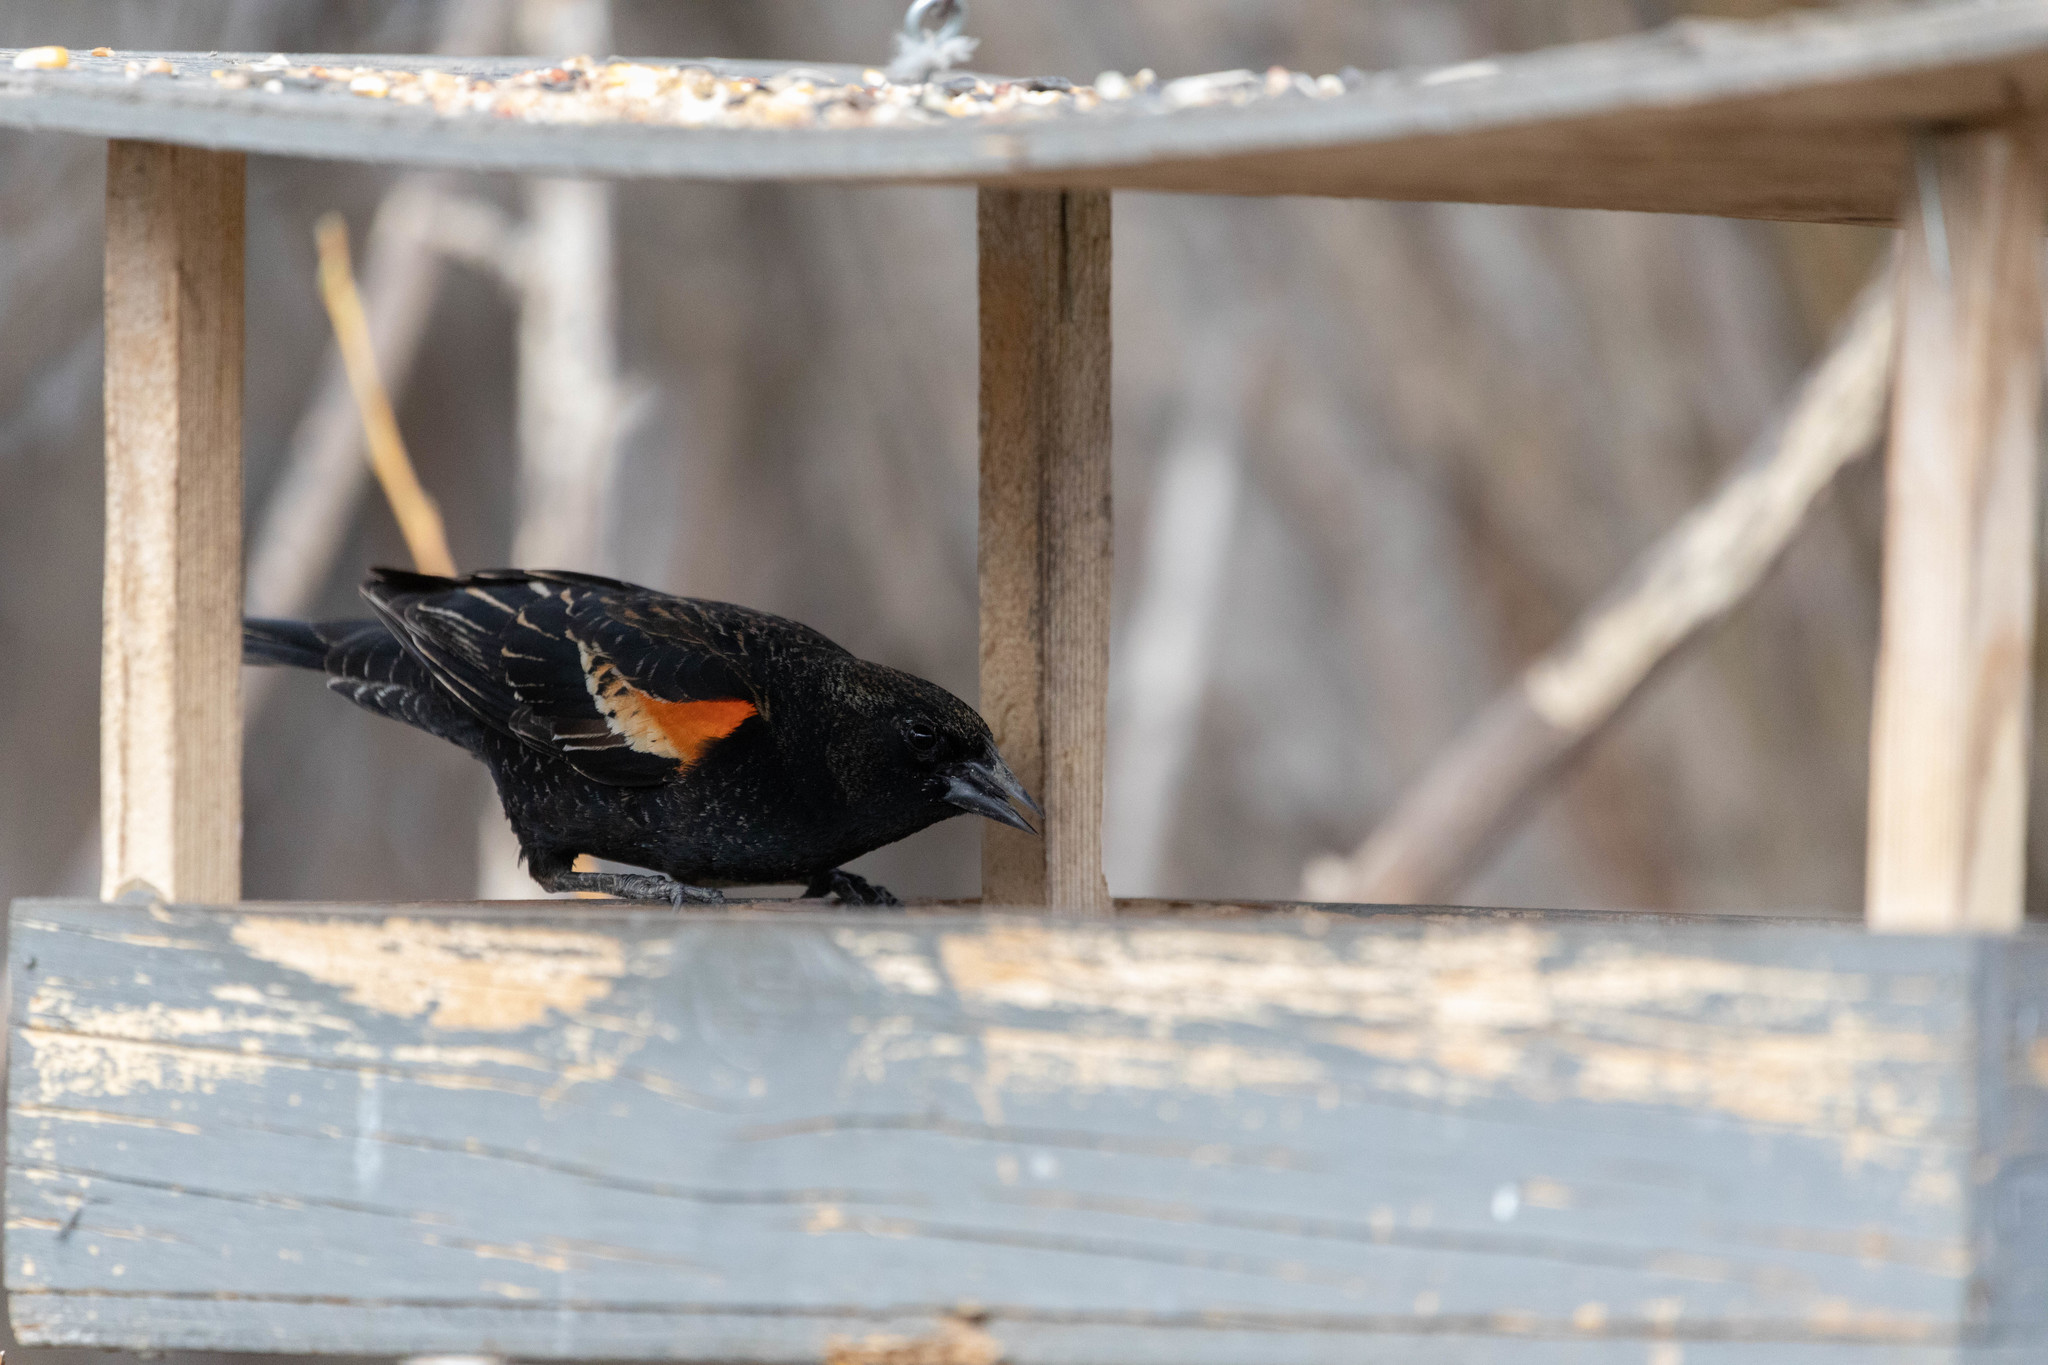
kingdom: Animalia
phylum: Chordata
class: Aves
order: Passeriformes
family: Icteridae
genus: Agelaius
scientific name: Agelaius phoeniceus
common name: Red-winged blackbird
